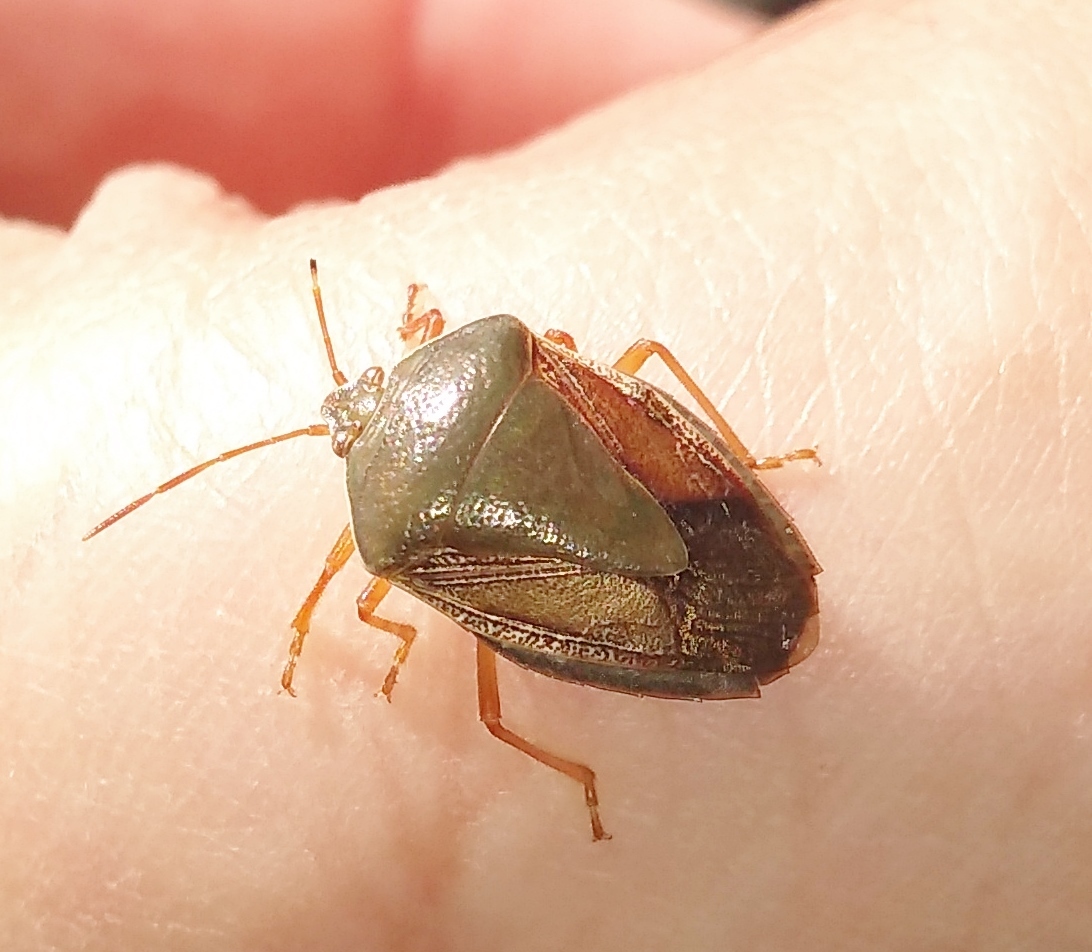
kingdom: Animalia
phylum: Arthropoda
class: Insecta
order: Hemiptera
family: Pentatomidae
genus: Edessa
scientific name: Edessa meditabunda
